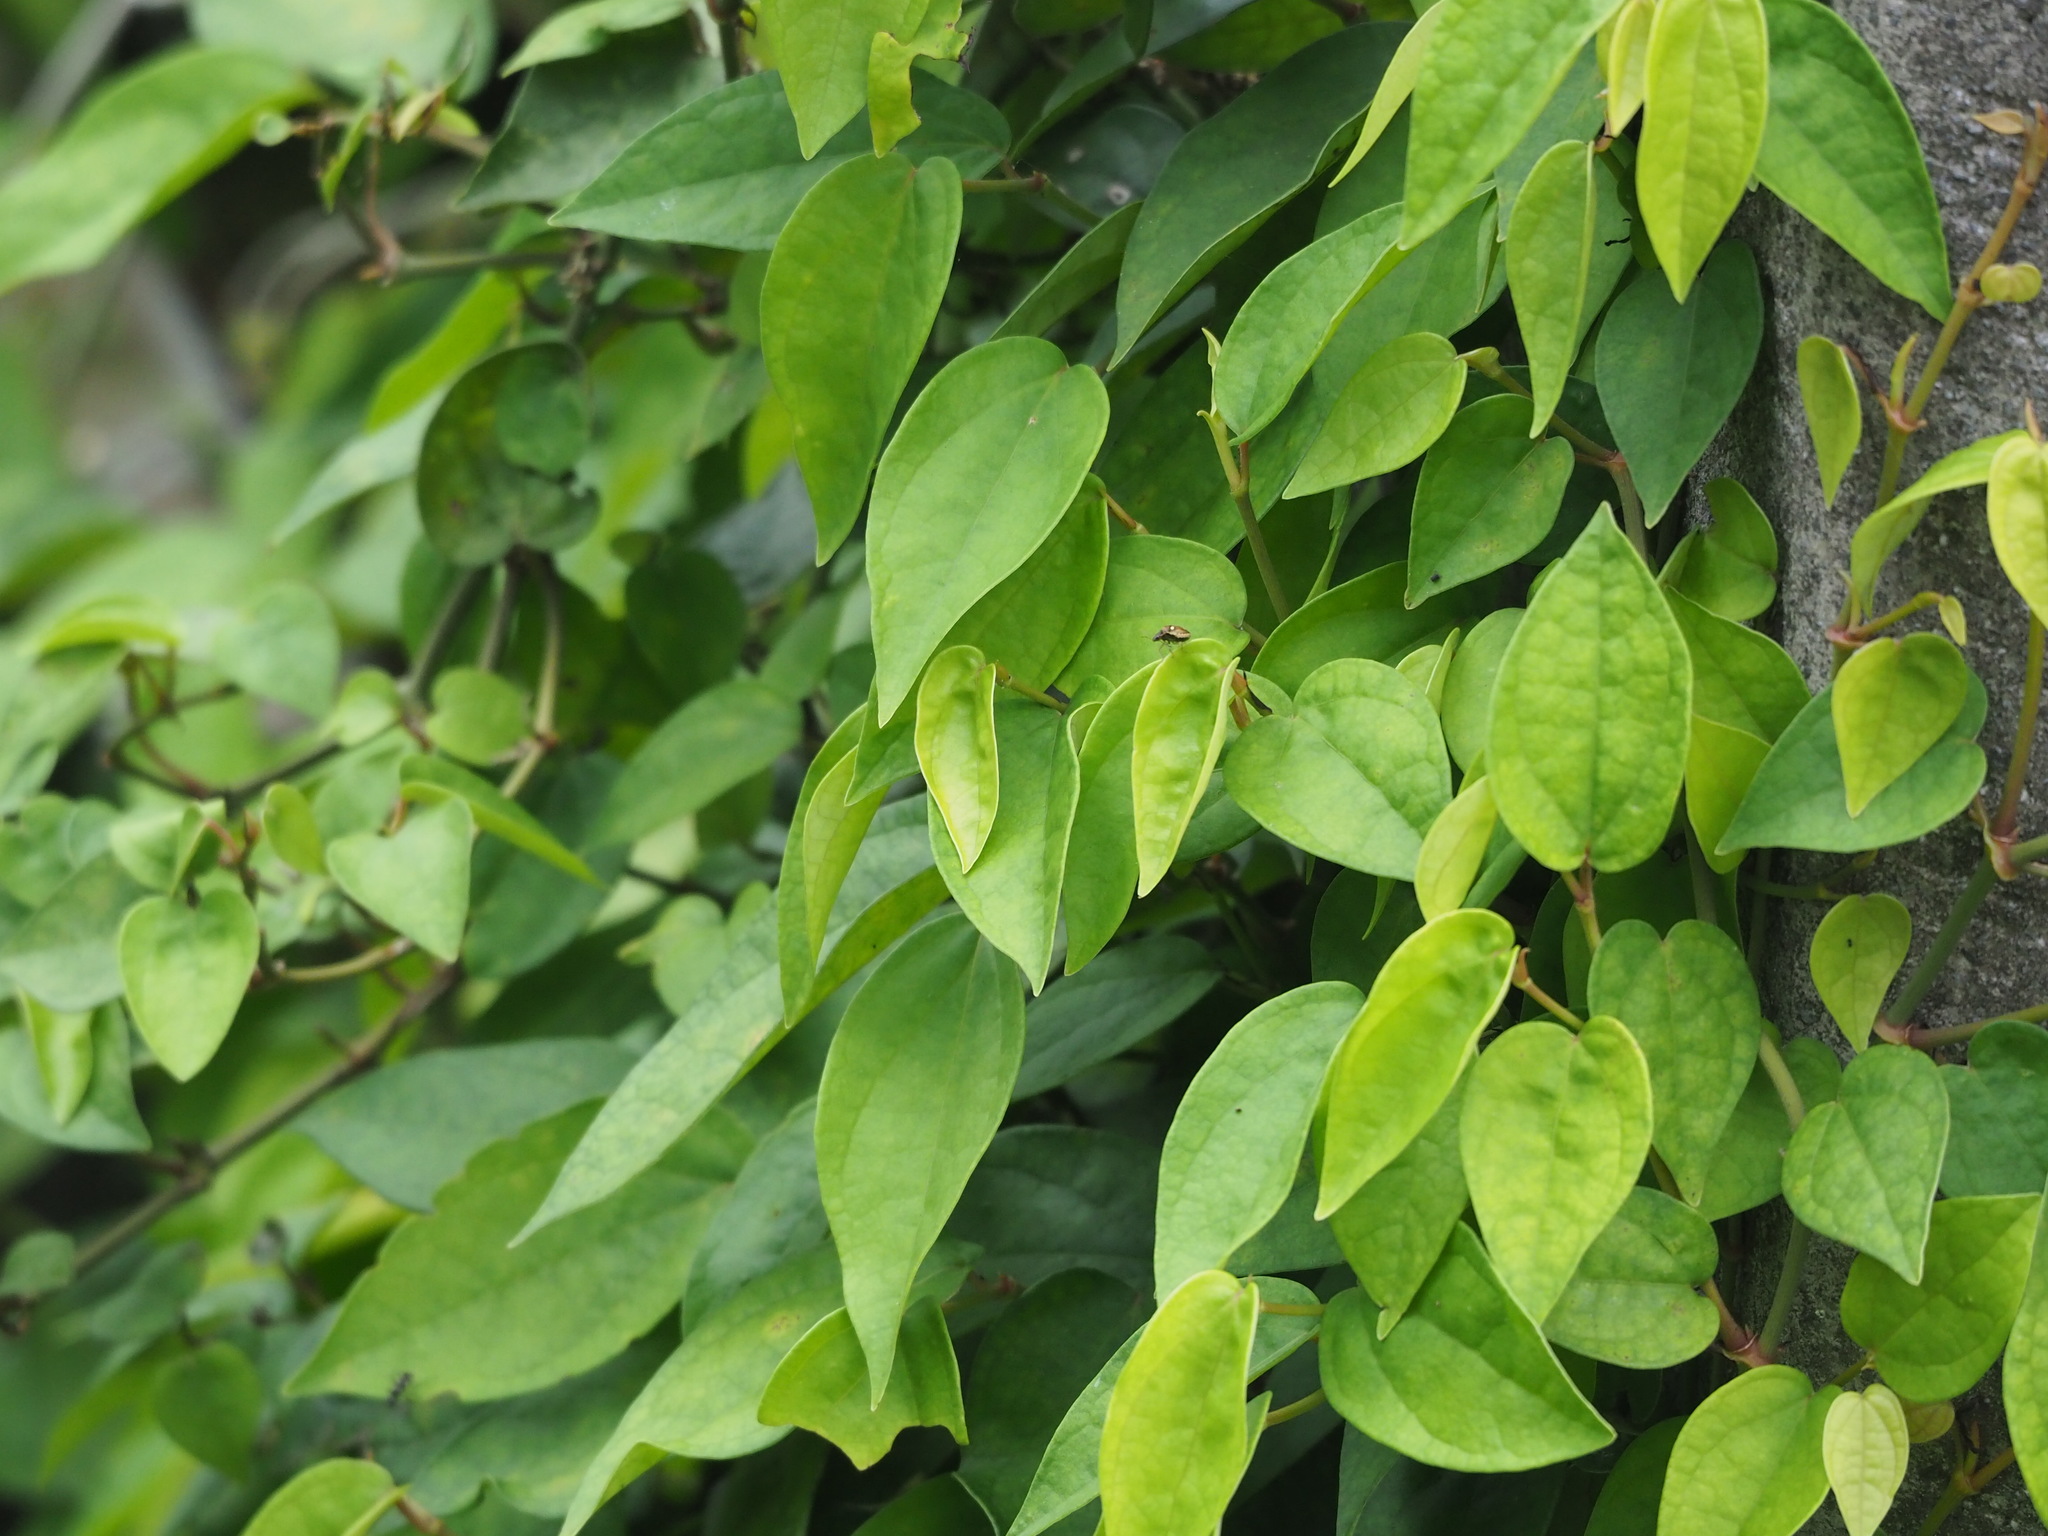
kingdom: Plantae
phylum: Tracheophyta
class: Magnoliopsida
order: Piperales
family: Piperaceae
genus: Piper
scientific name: Piper kadsura
